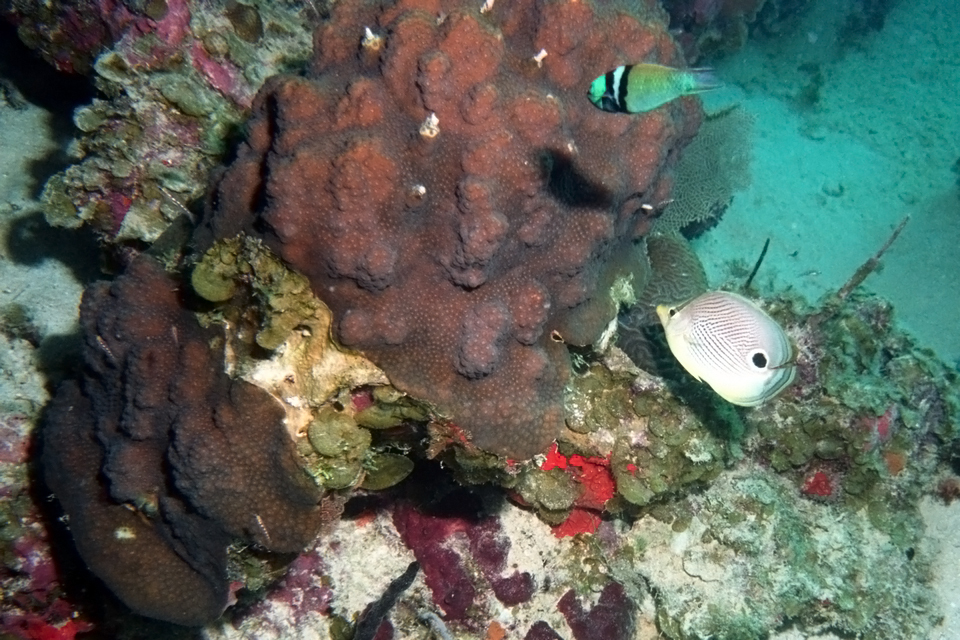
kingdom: Animalia
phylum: Chordata
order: Perciformes
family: Chaetodontidae
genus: Chaetodon
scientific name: Chaetodon capistratus
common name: Kete
